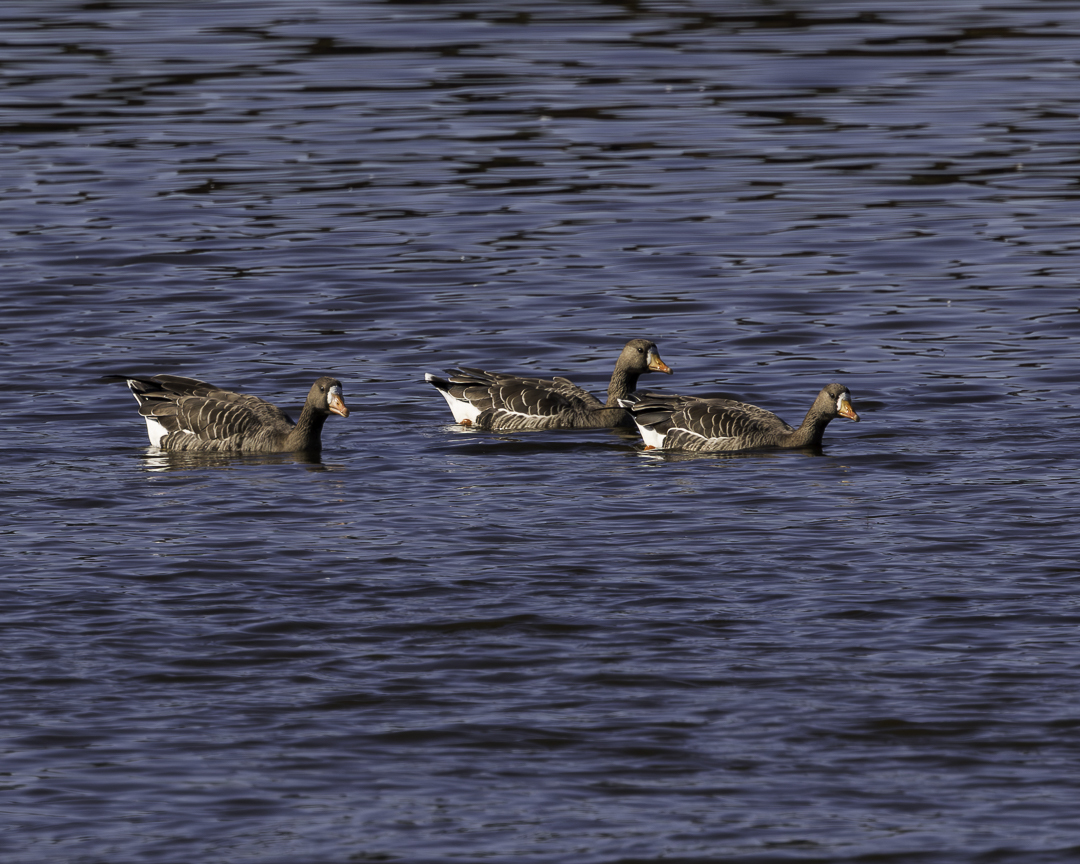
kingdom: Animalia
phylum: Chordata
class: Aves
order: Anseriformes
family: Anatidae
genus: Anser
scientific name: Anser albifrons
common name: Greater white-fronted goose
